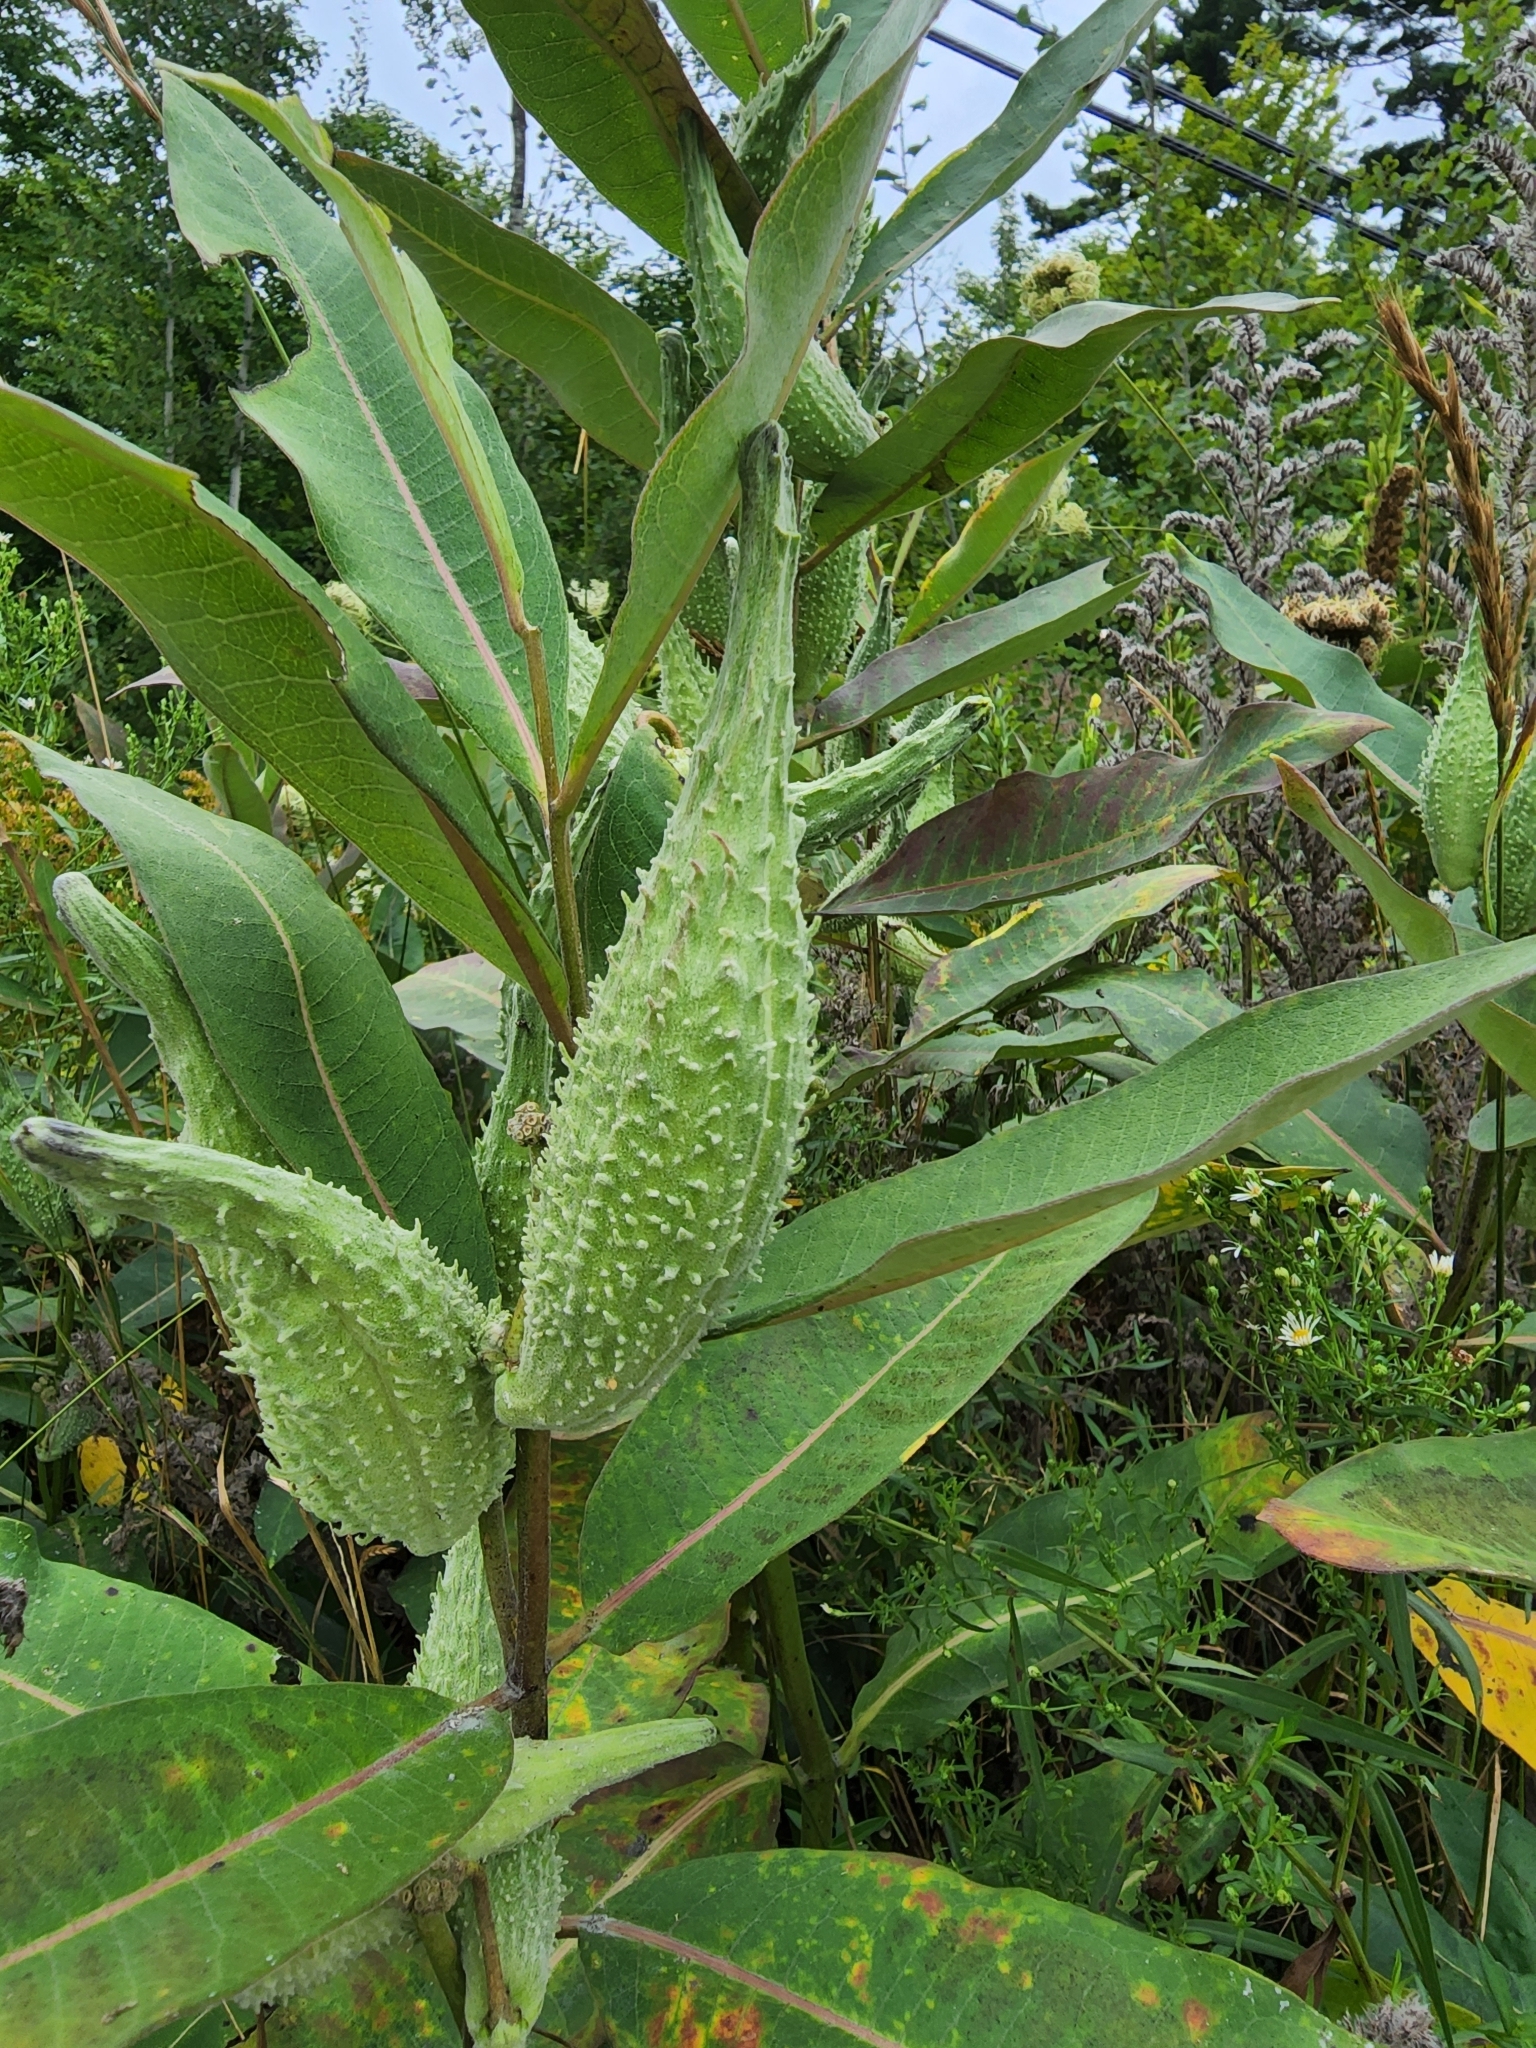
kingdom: Plantae
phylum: Tracheophyta
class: Magnoliopsida
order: Gentianales
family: Apocynaceae
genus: Asclepias
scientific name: Asclepias syriaca
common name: Common milkweed
